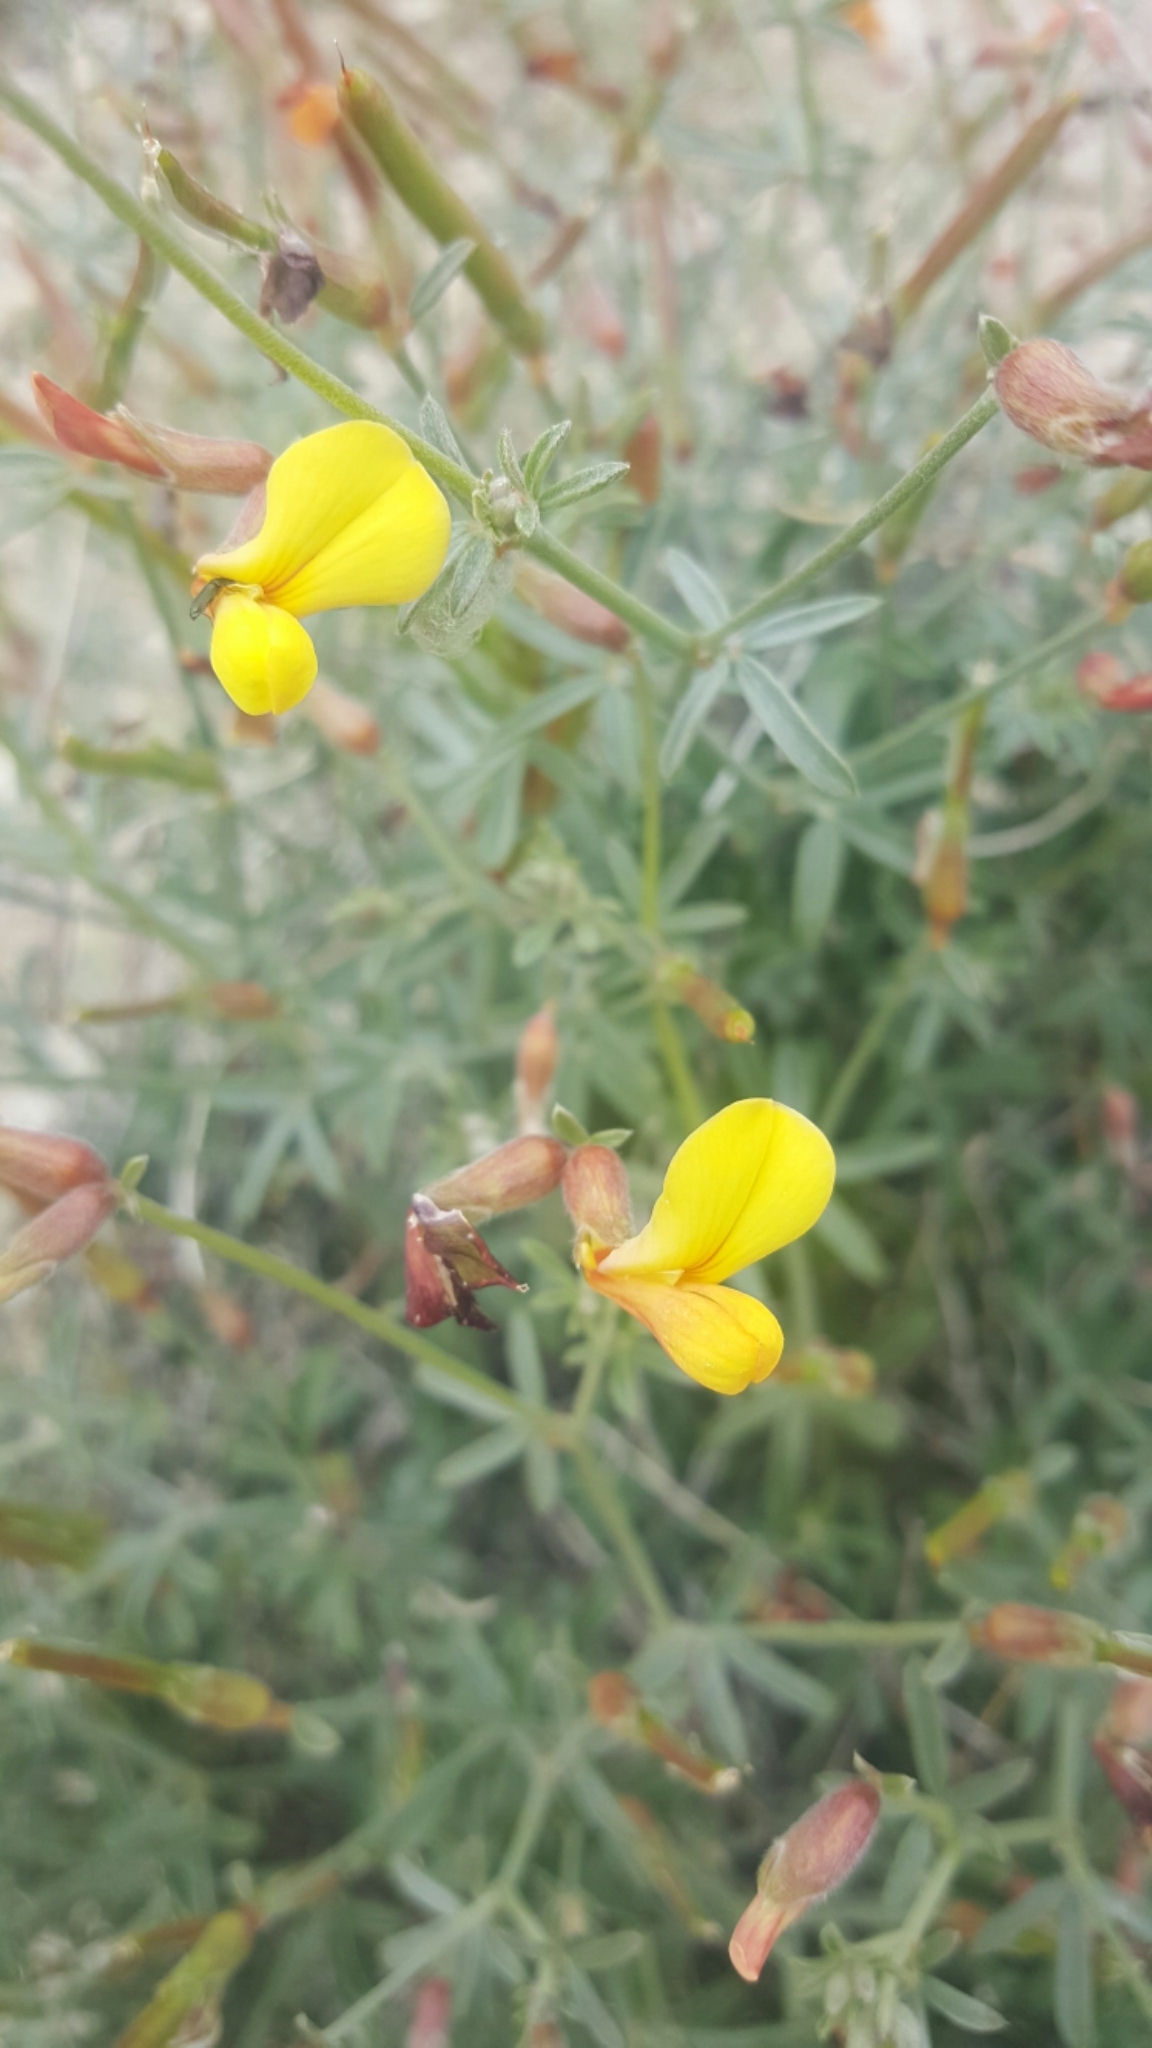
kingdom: Plantae
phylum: Tracheophyta
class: Magnoliopsida
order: Fabales
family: Fabaceae
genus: Acmispon
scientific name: Acmispon rigidus
